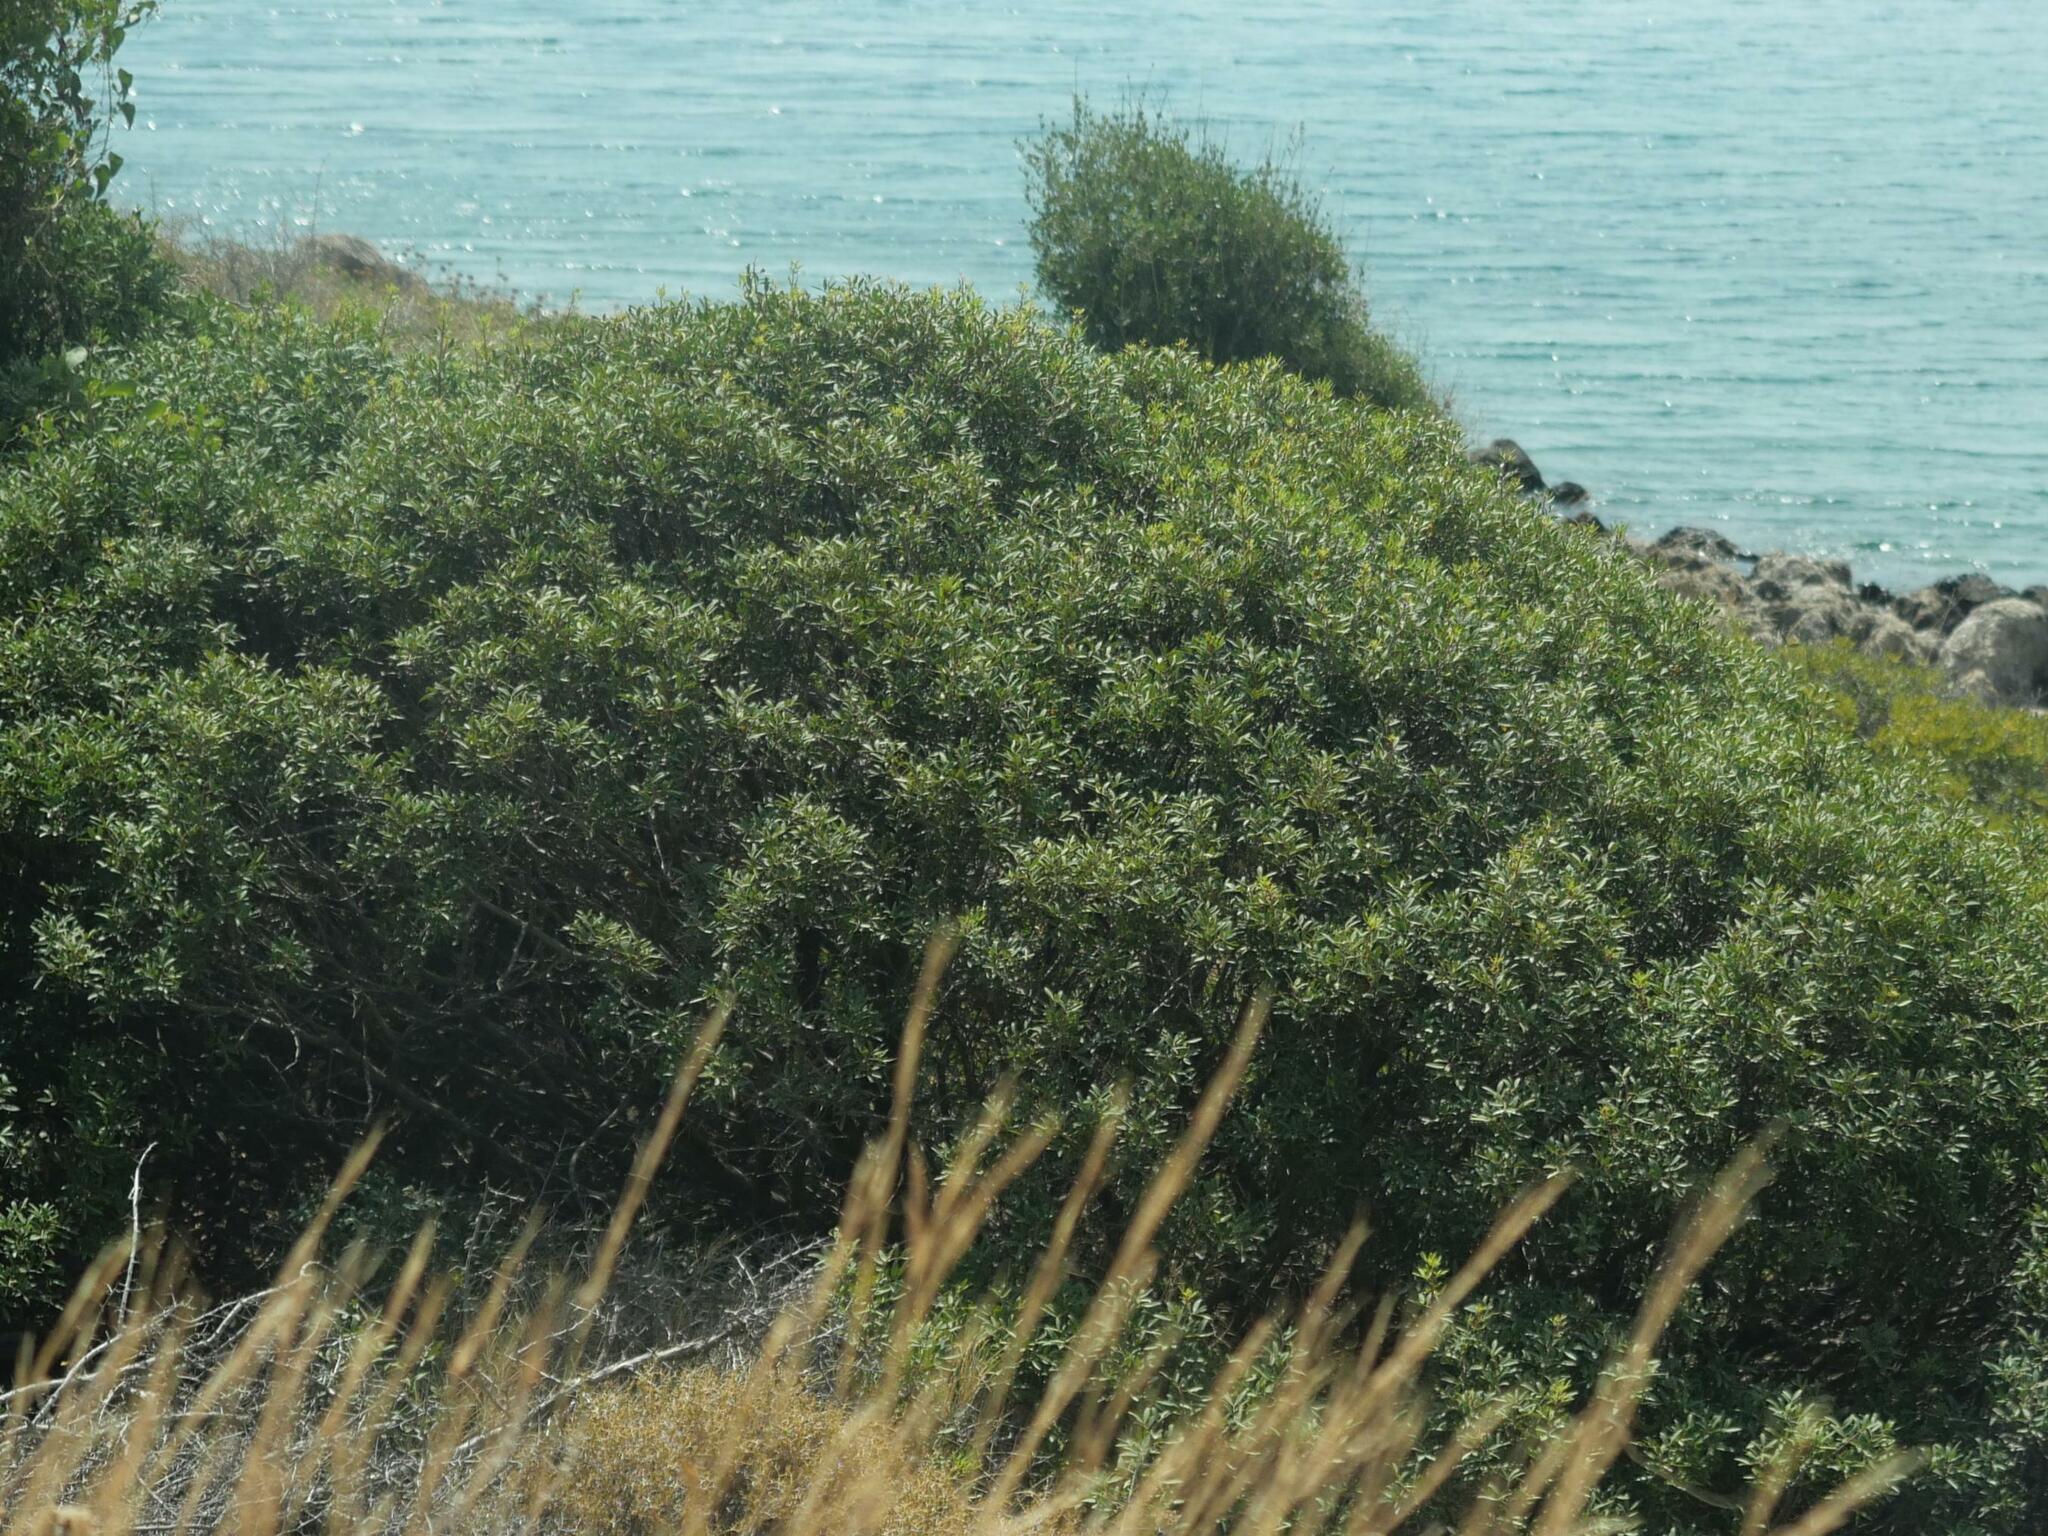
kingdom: Plantae
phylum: Tracheophyta
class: Magnoliopsida
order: Sapindales
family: Anacardiaceae
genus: Pistacia
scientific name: Pistacia lentiscus
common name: Lentisk
